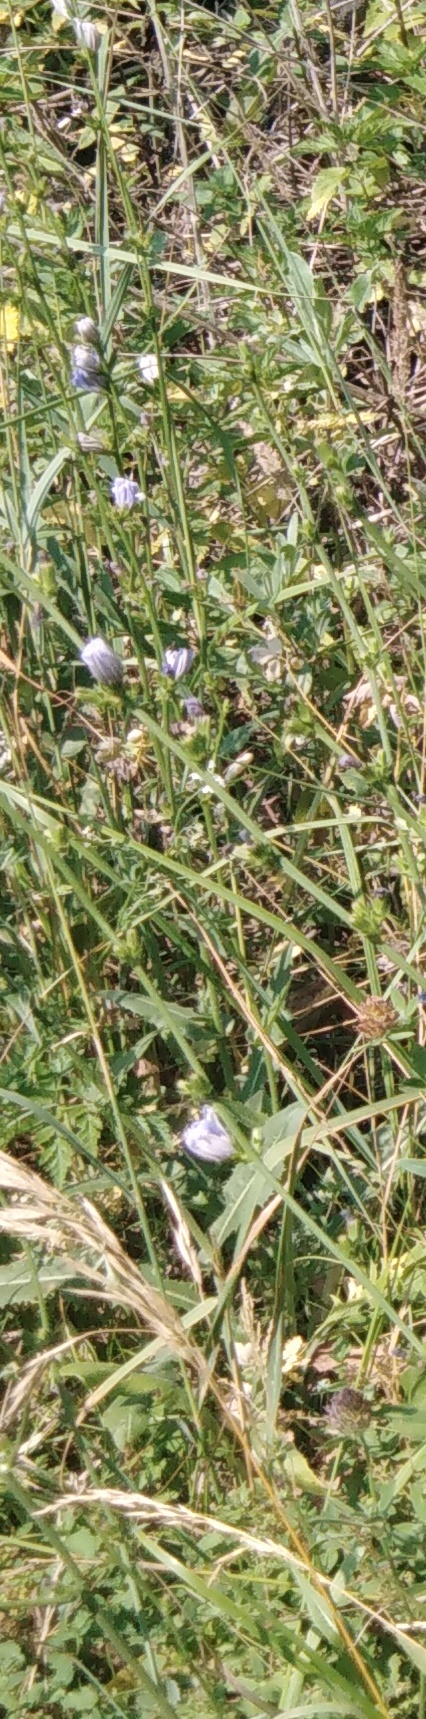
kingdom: Plantae
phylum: Tracheophyta
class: Magnoliopsida
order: Asterales
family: Asteraceae
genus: Cichorium
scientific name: Cichorium intybus
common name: Chicory
